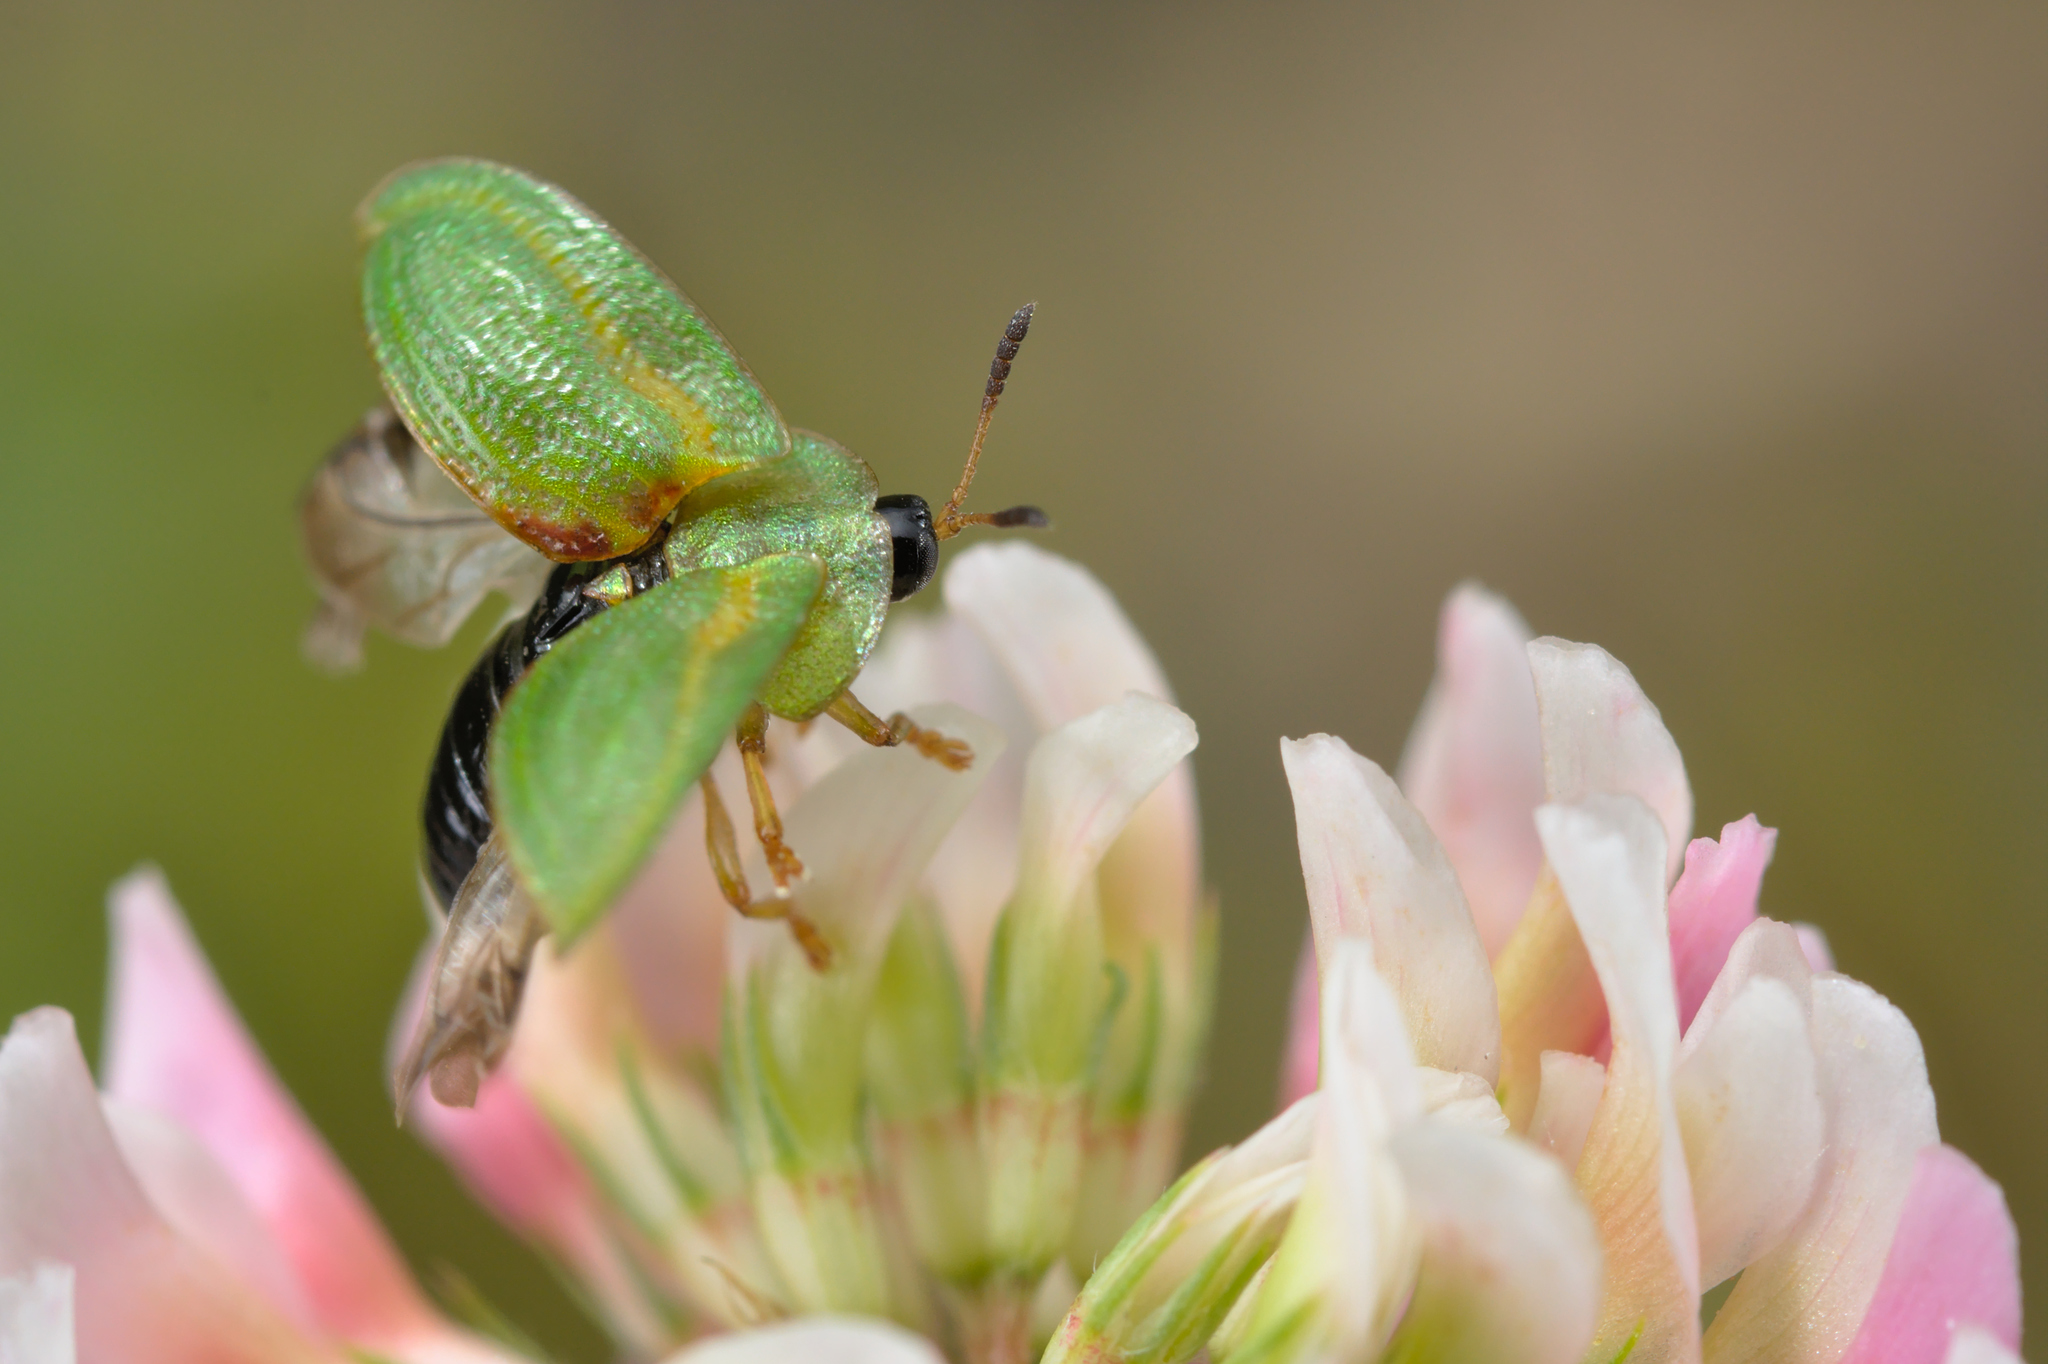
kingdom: Animalia
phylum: Arthropoda
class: Insecta
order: Coleoptera
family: Chrysomelidae
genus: Cassida
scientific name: Cassida stigmatica
